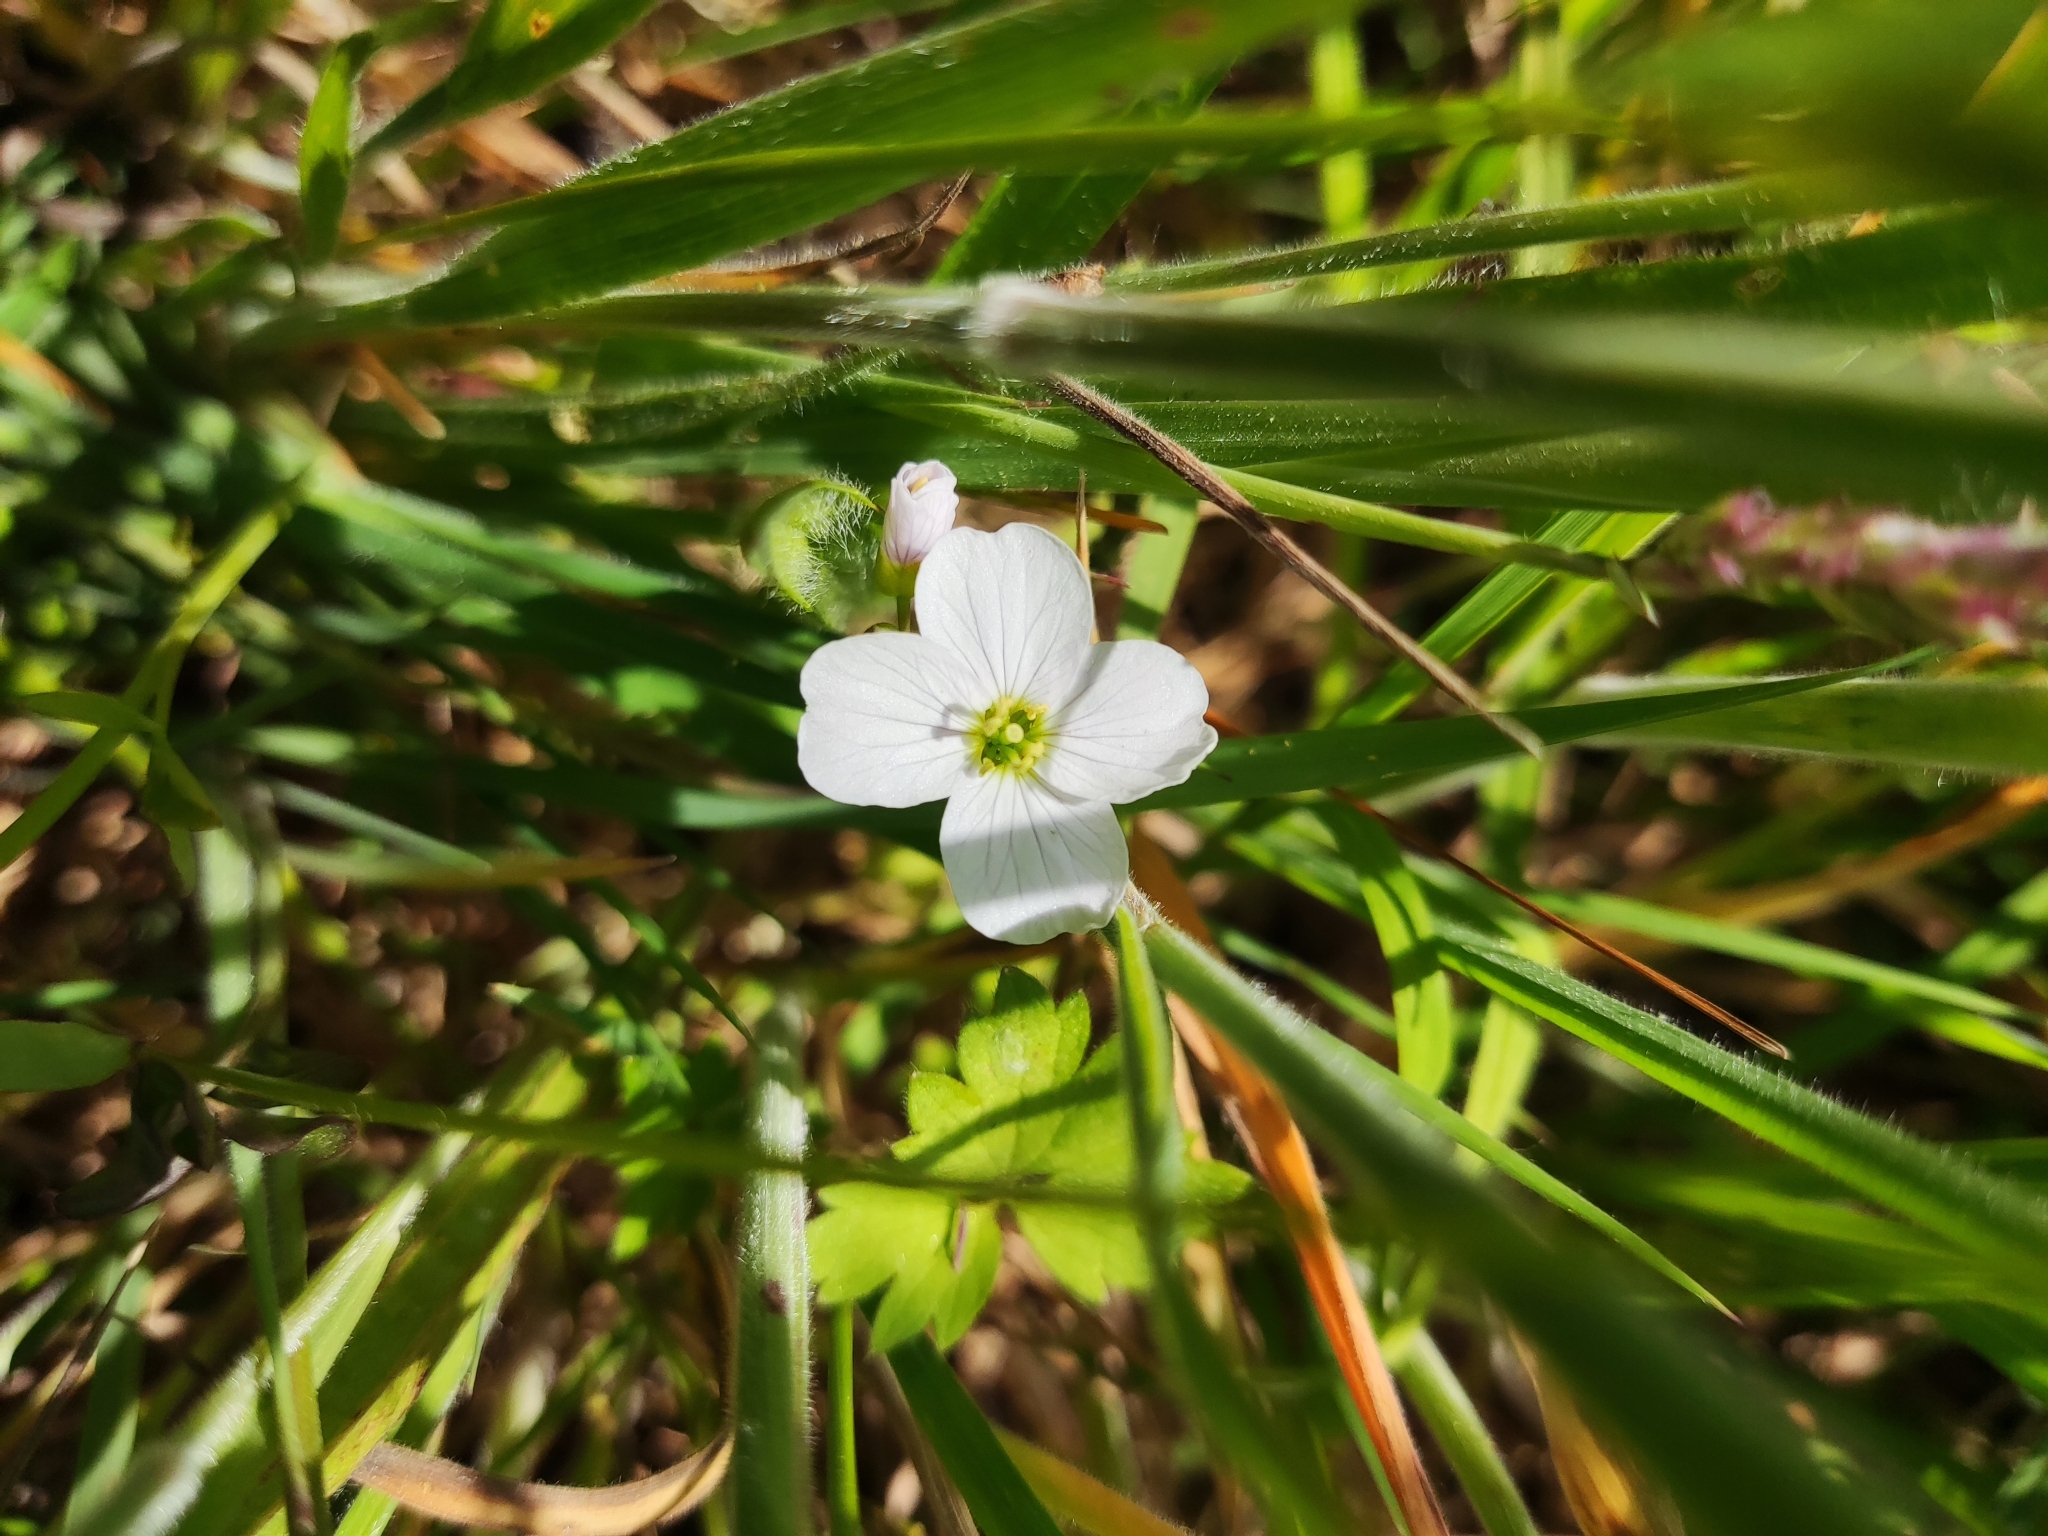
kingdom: Plantae
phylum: Tracheophyta
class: Magnoliopsida
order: Brassicales
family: Brassicaceae
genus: Cardamine
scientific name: Cardamine pratensis
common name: Cuckoo flower
